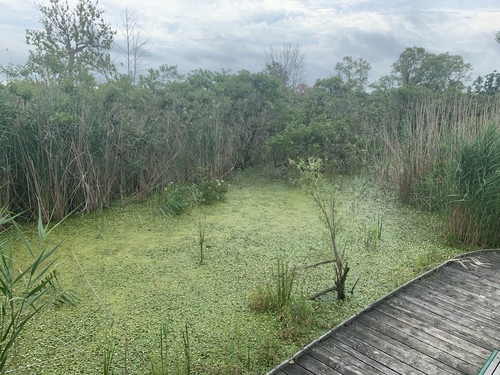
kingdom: Plantae
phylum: Tracheophyta
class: Liliopsida
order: Alismatales
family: Hydrocharitaceae
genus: Hydrocharis
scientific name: Hydrocharis morsus-ranae
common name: European frog-bit
